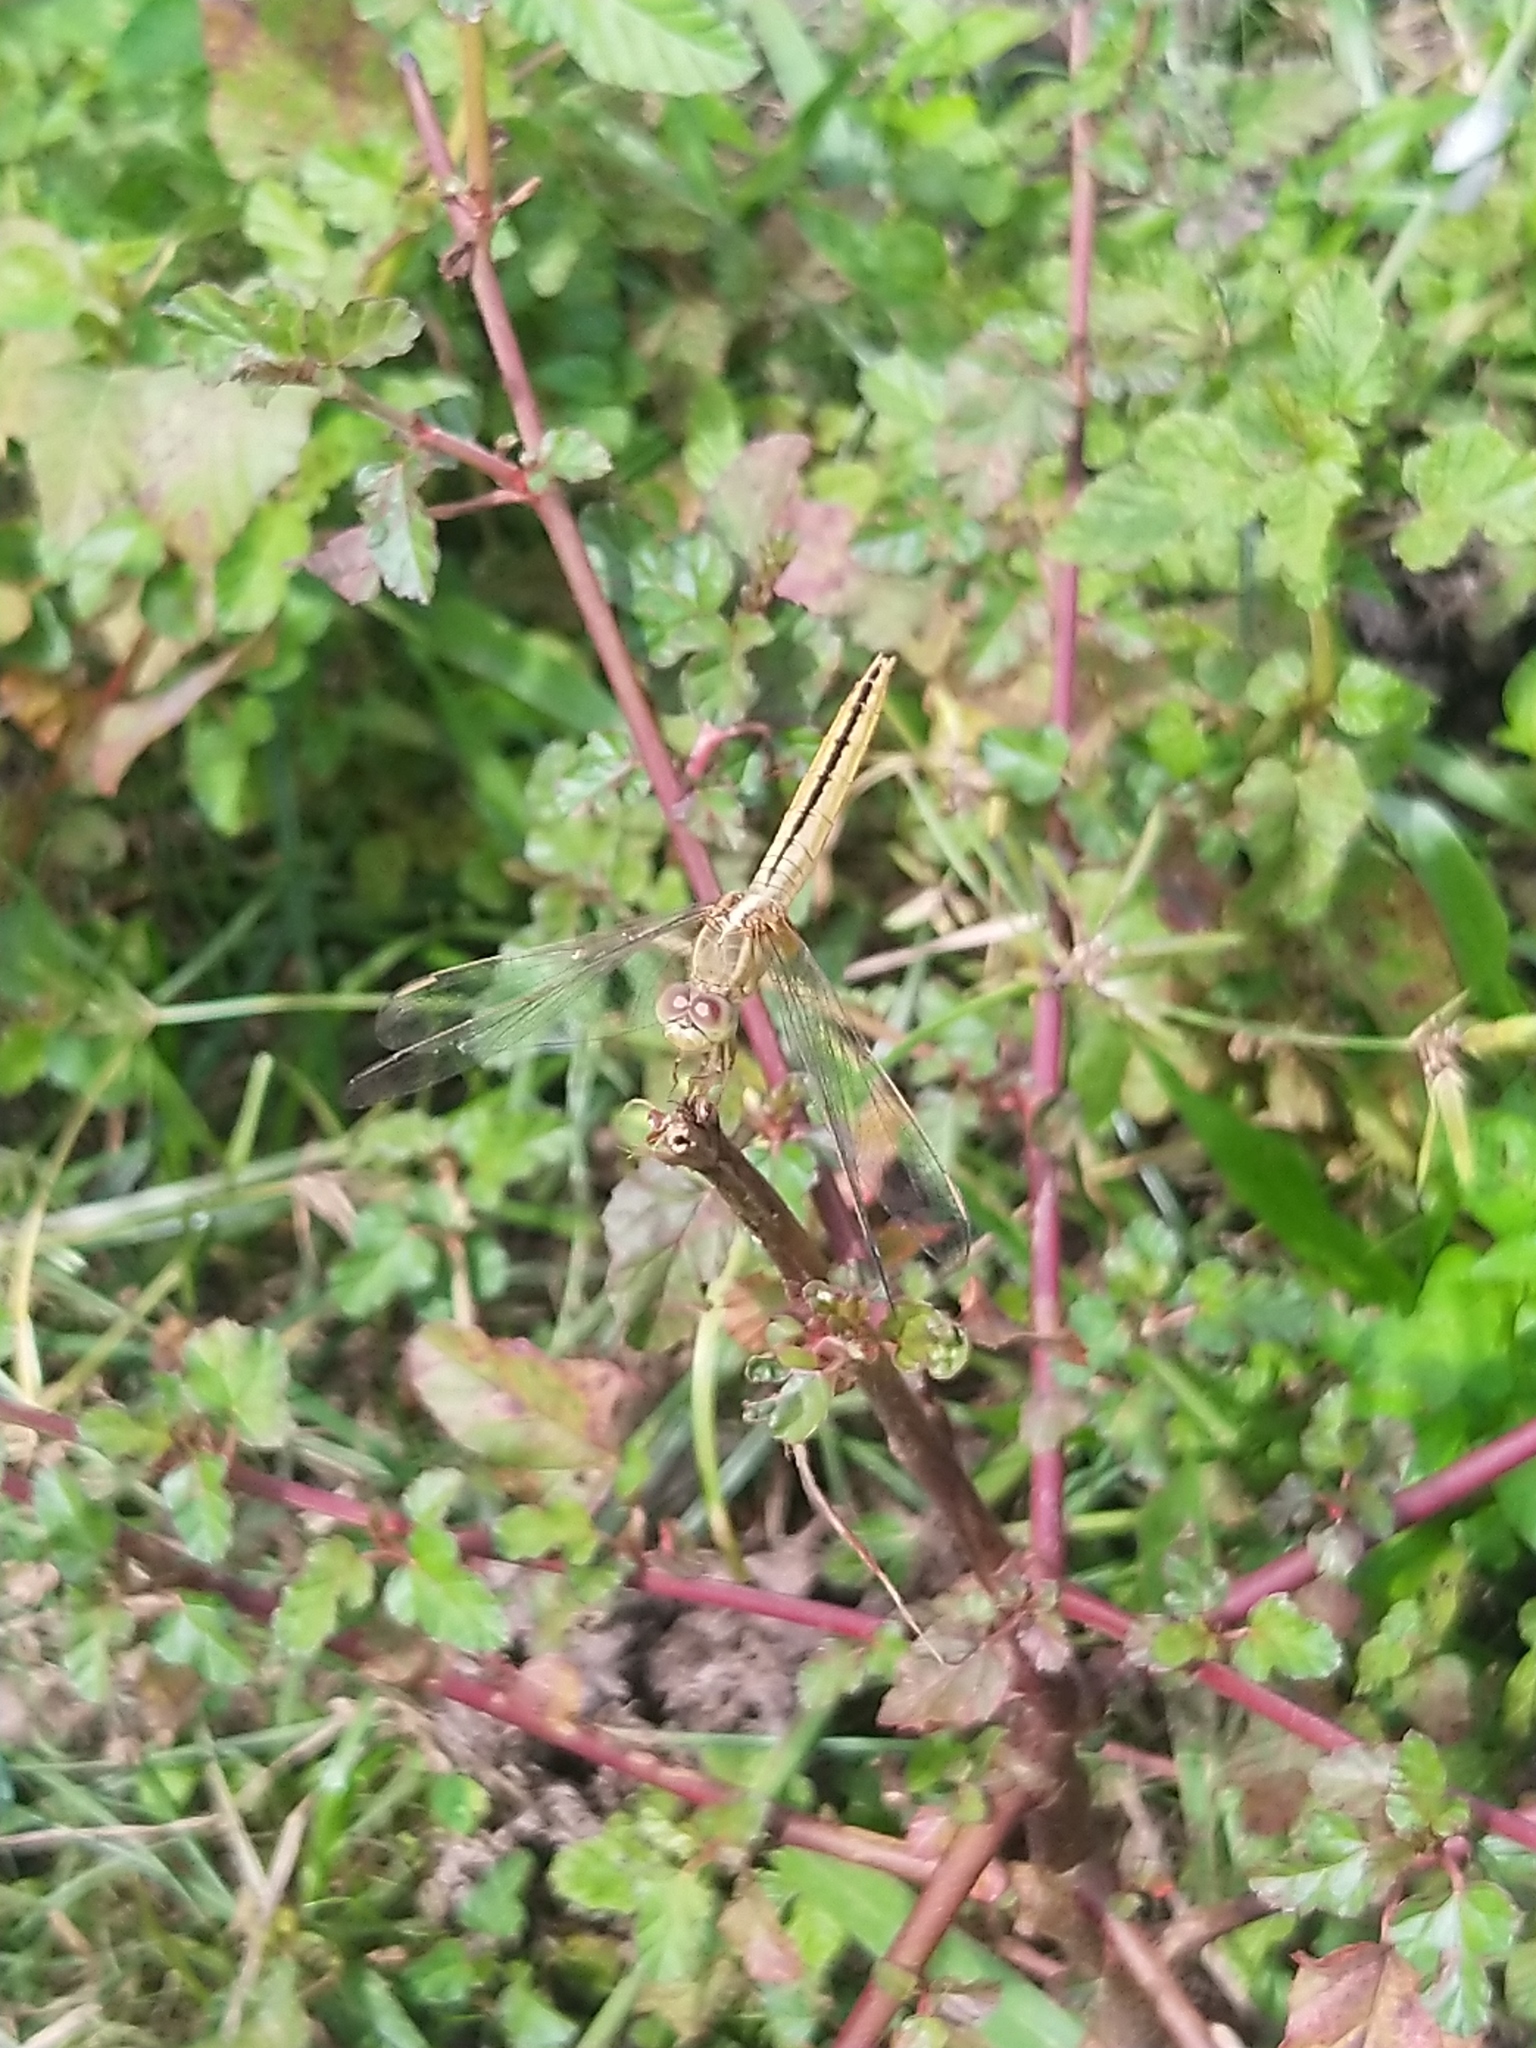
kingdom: Animalia
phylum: Arthropoda
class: Insecta
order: Odonata
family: Libellulidae
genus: Crocothemis
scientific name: Crocothemis servilia
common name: Scarlet skimmer
